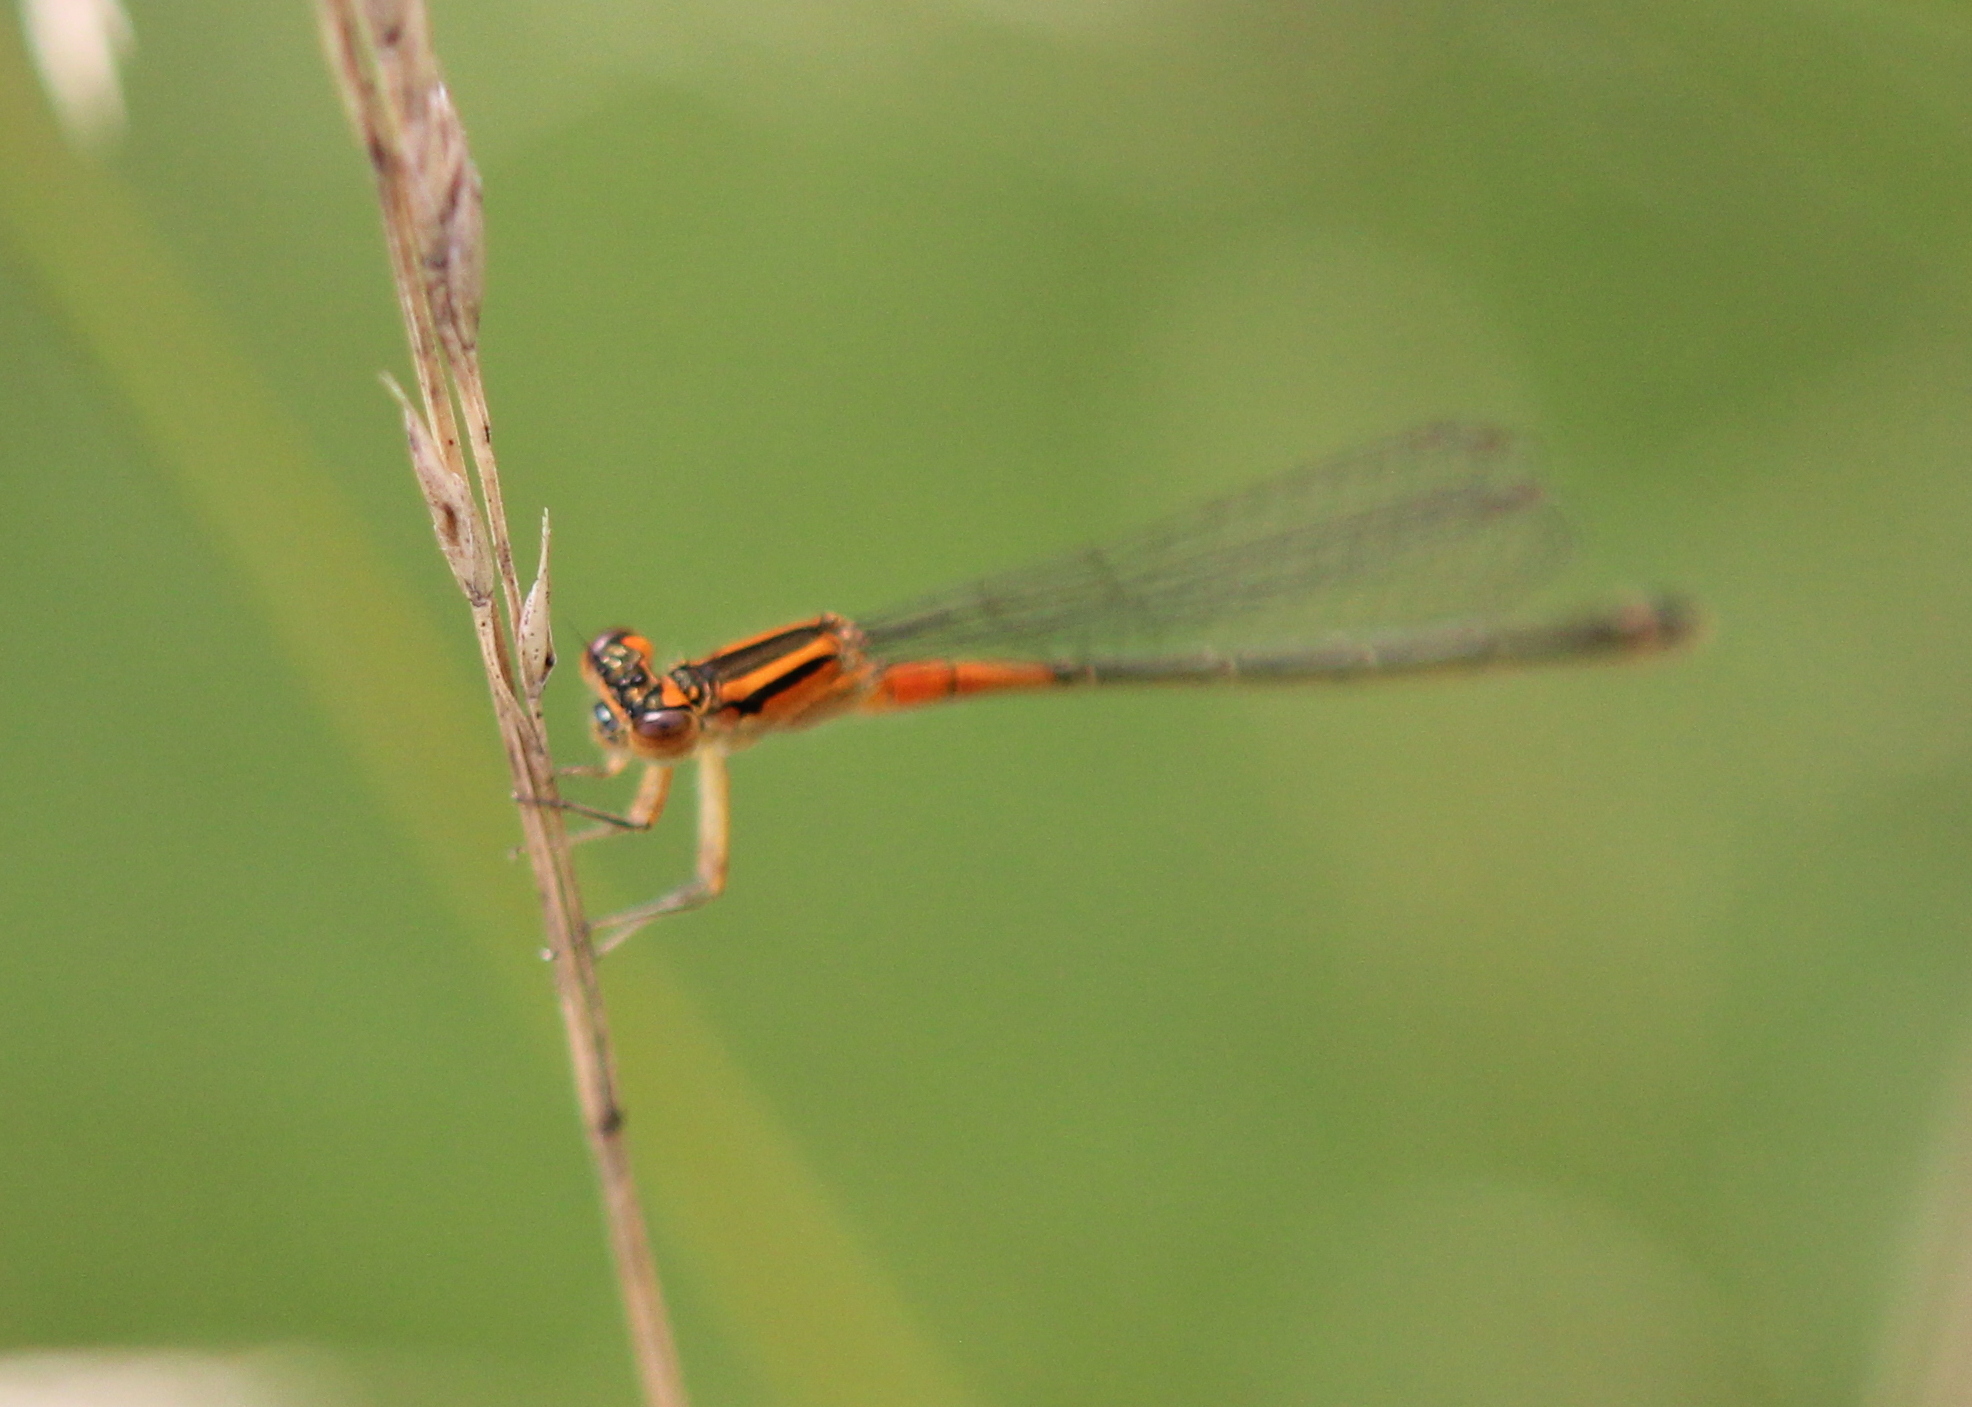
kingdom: Animalia
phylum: Arthropoda
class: Insecta
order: Odonata
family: Coenagrionidae
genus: Ischnura
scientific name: Ischnura verticalis
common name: Eastern forktail
